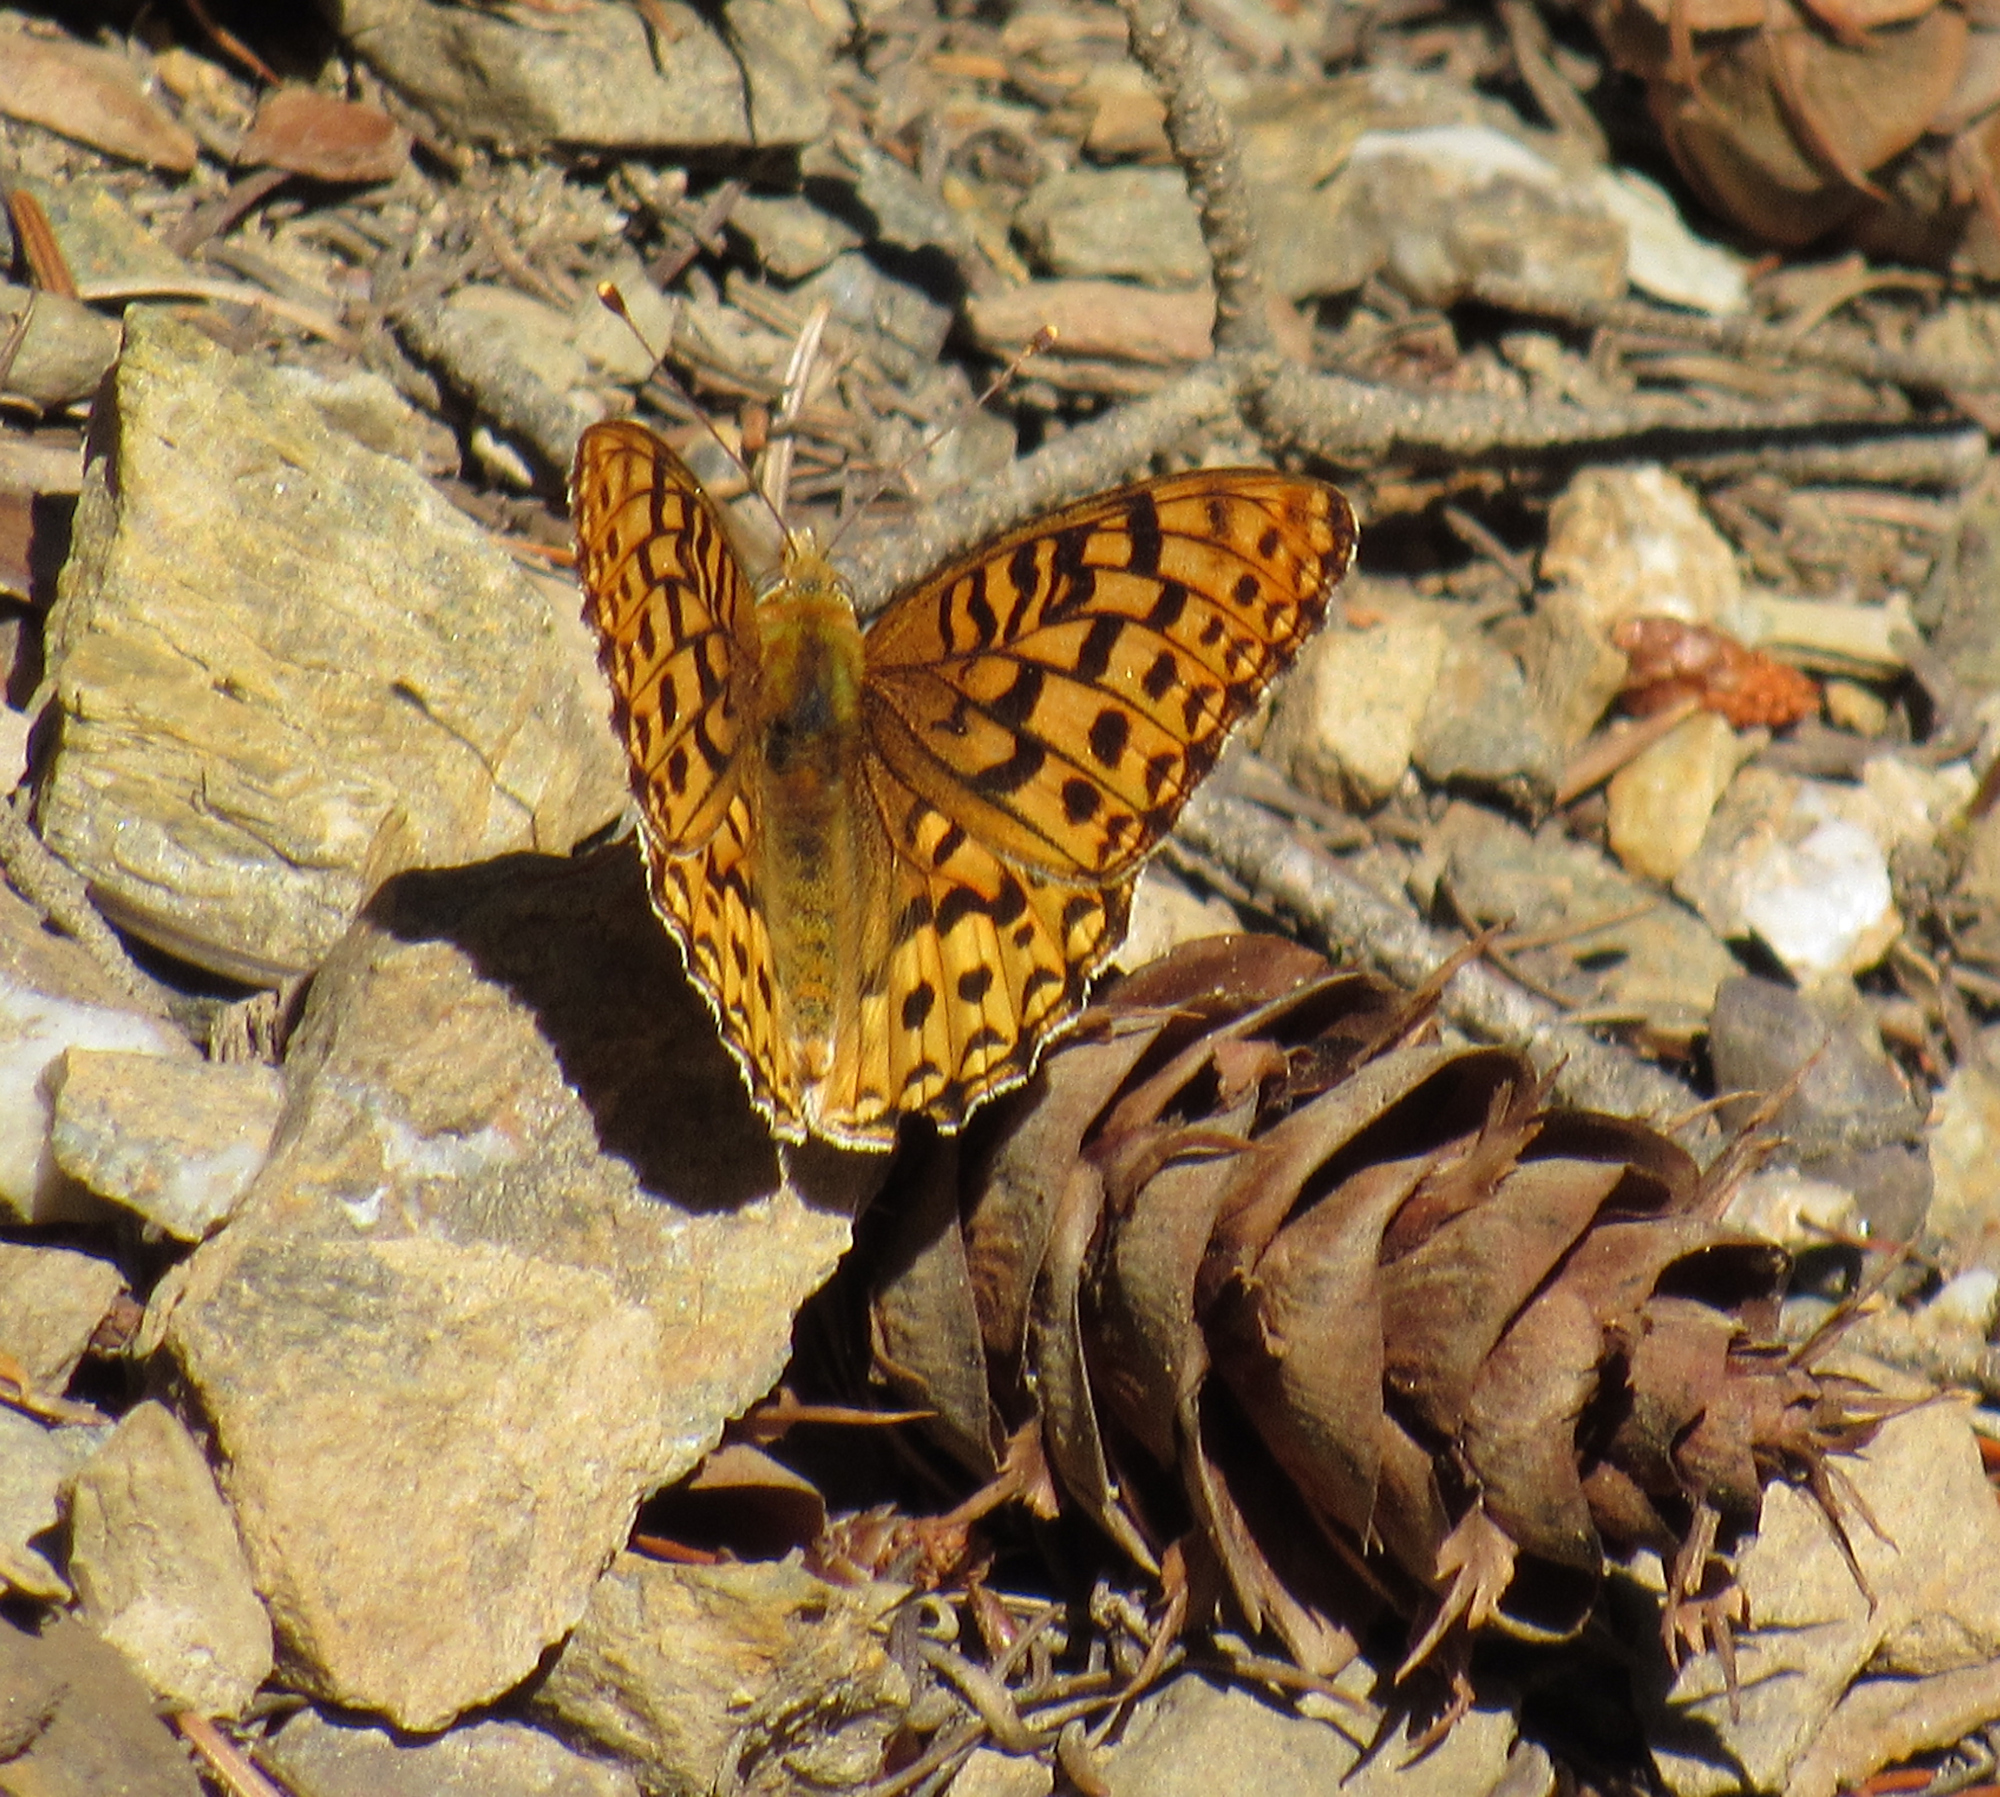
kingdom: Plantae
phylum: Tracheophyta
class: Pinopsida
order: Pinales
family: Pinaceae
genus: Pseudotsuga
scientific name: Pseudotsuga menziesii
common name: Douglas fir
